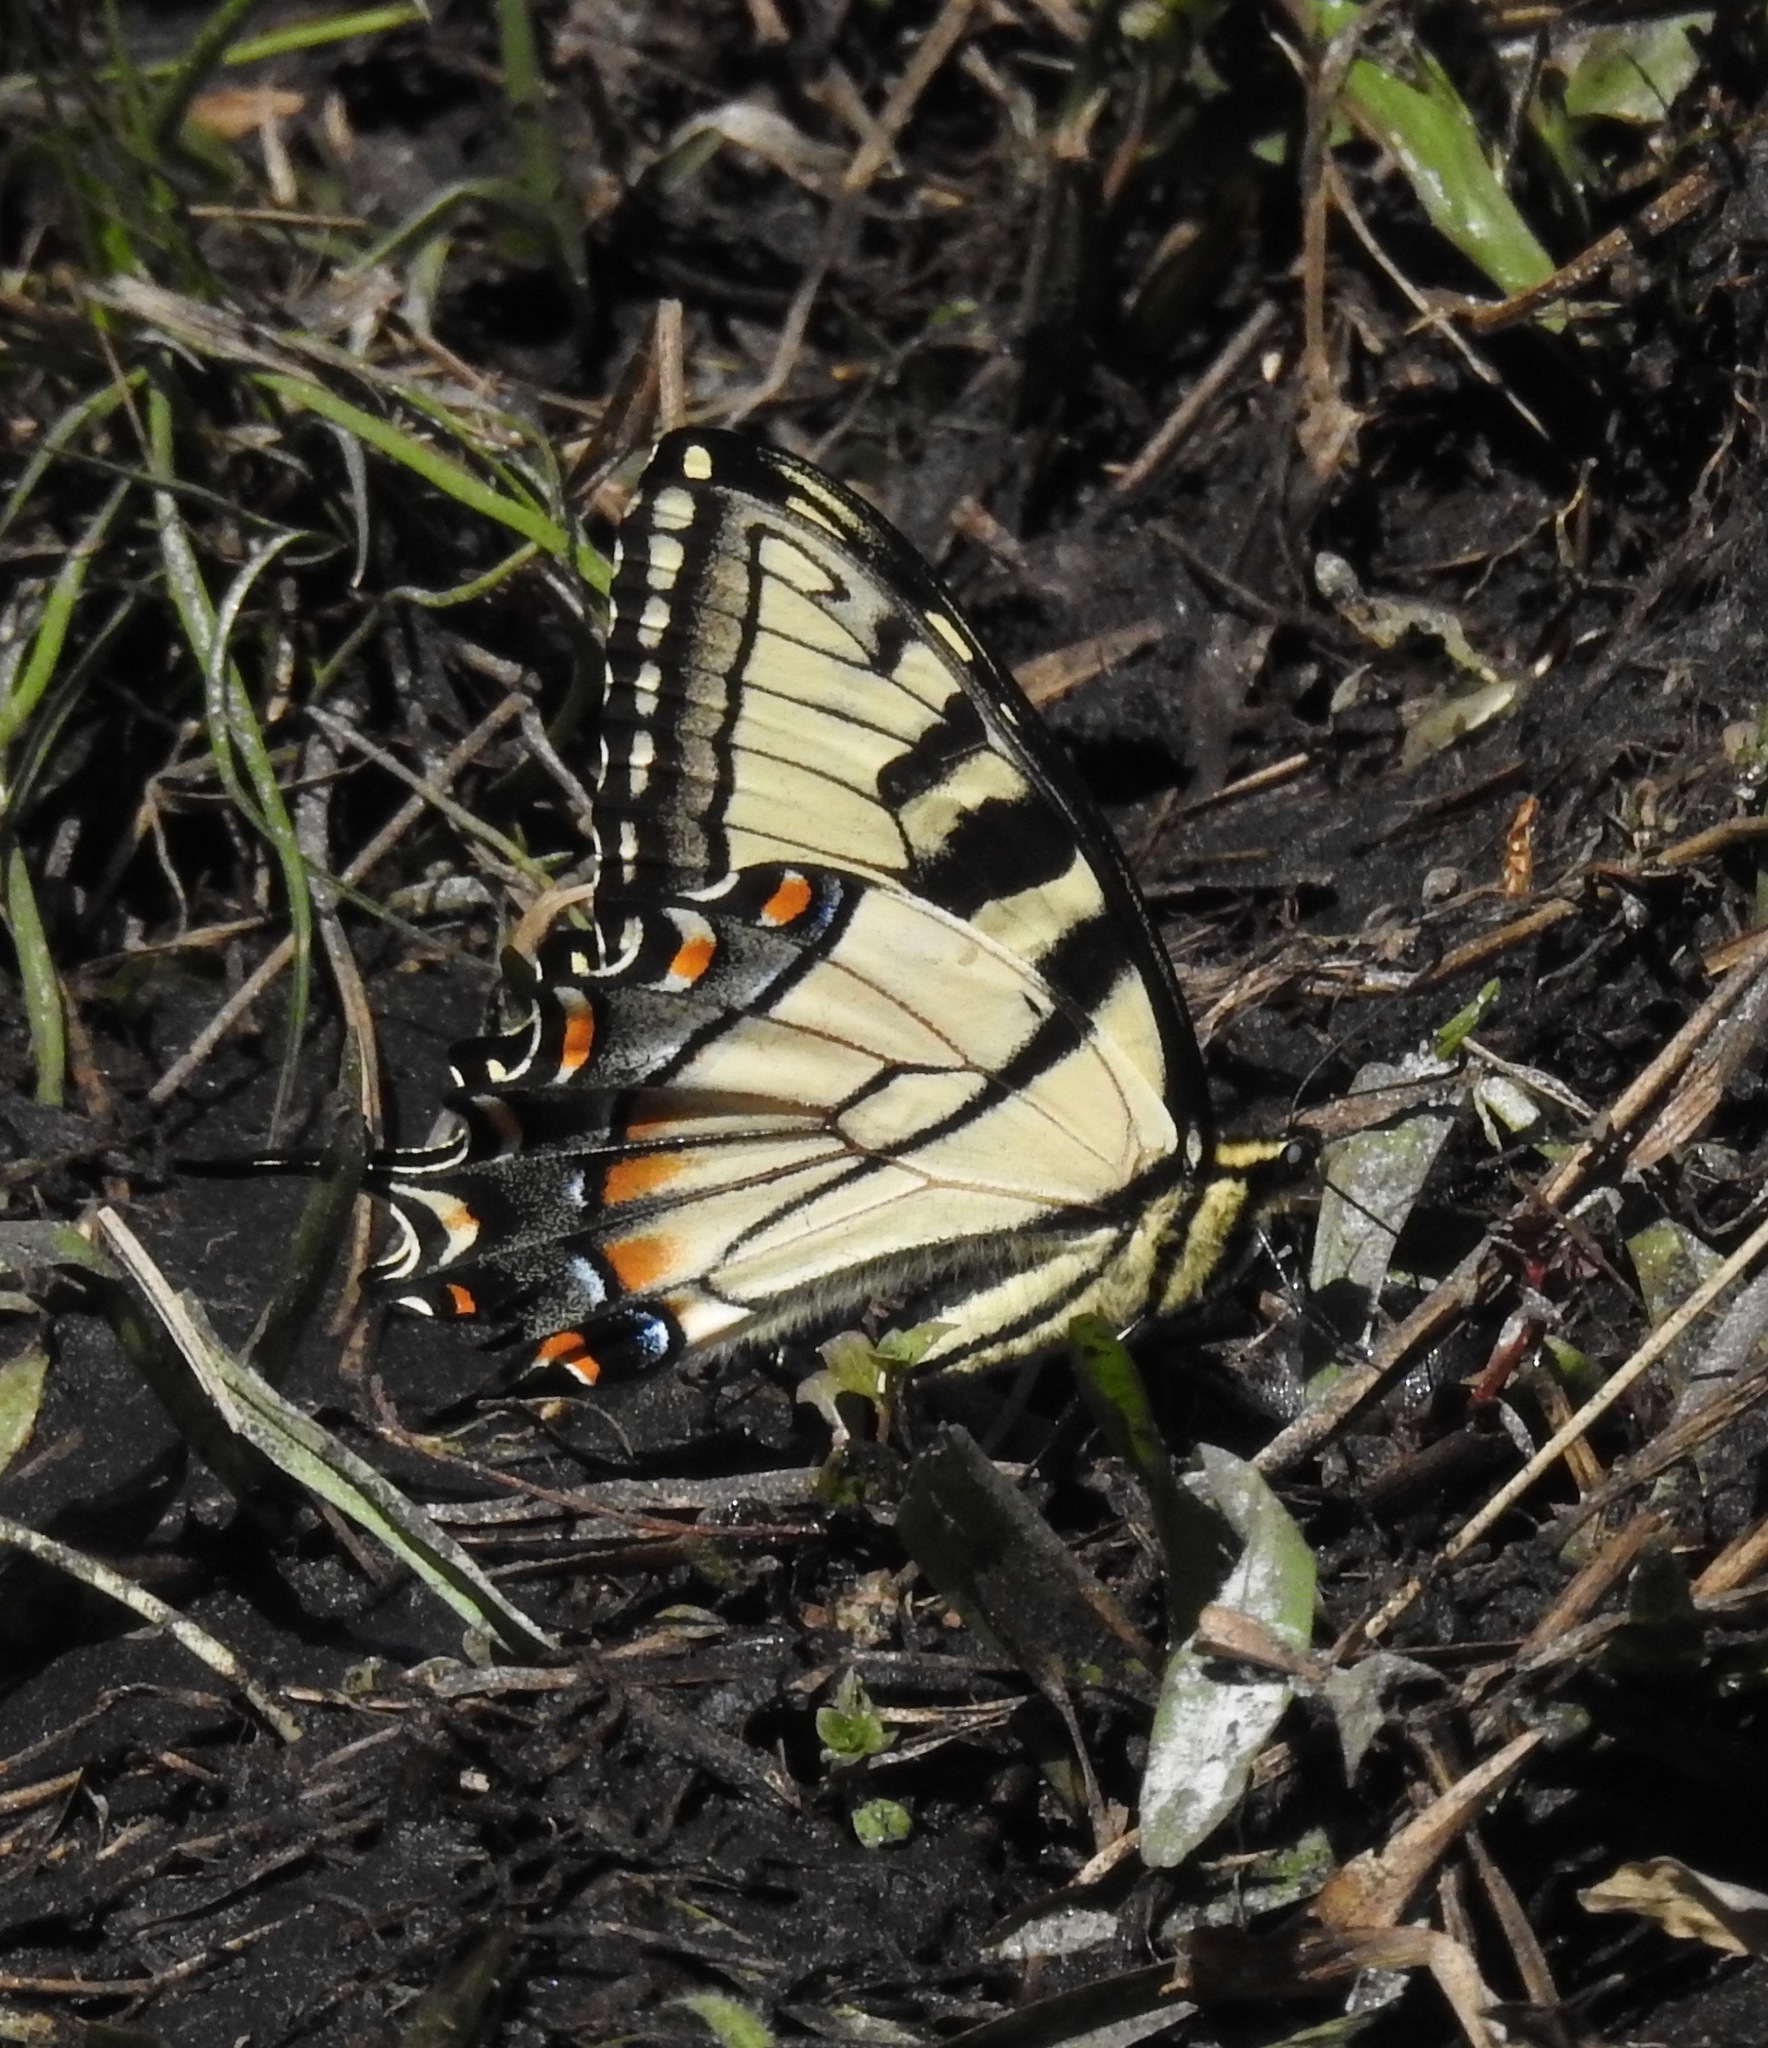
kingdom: Animalia
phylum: Arthropoda
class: Insecta
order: Lepidoptera
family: Papilionidae
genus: Papilio
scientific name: Papilio glaucus
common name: Tiger swallowtail
